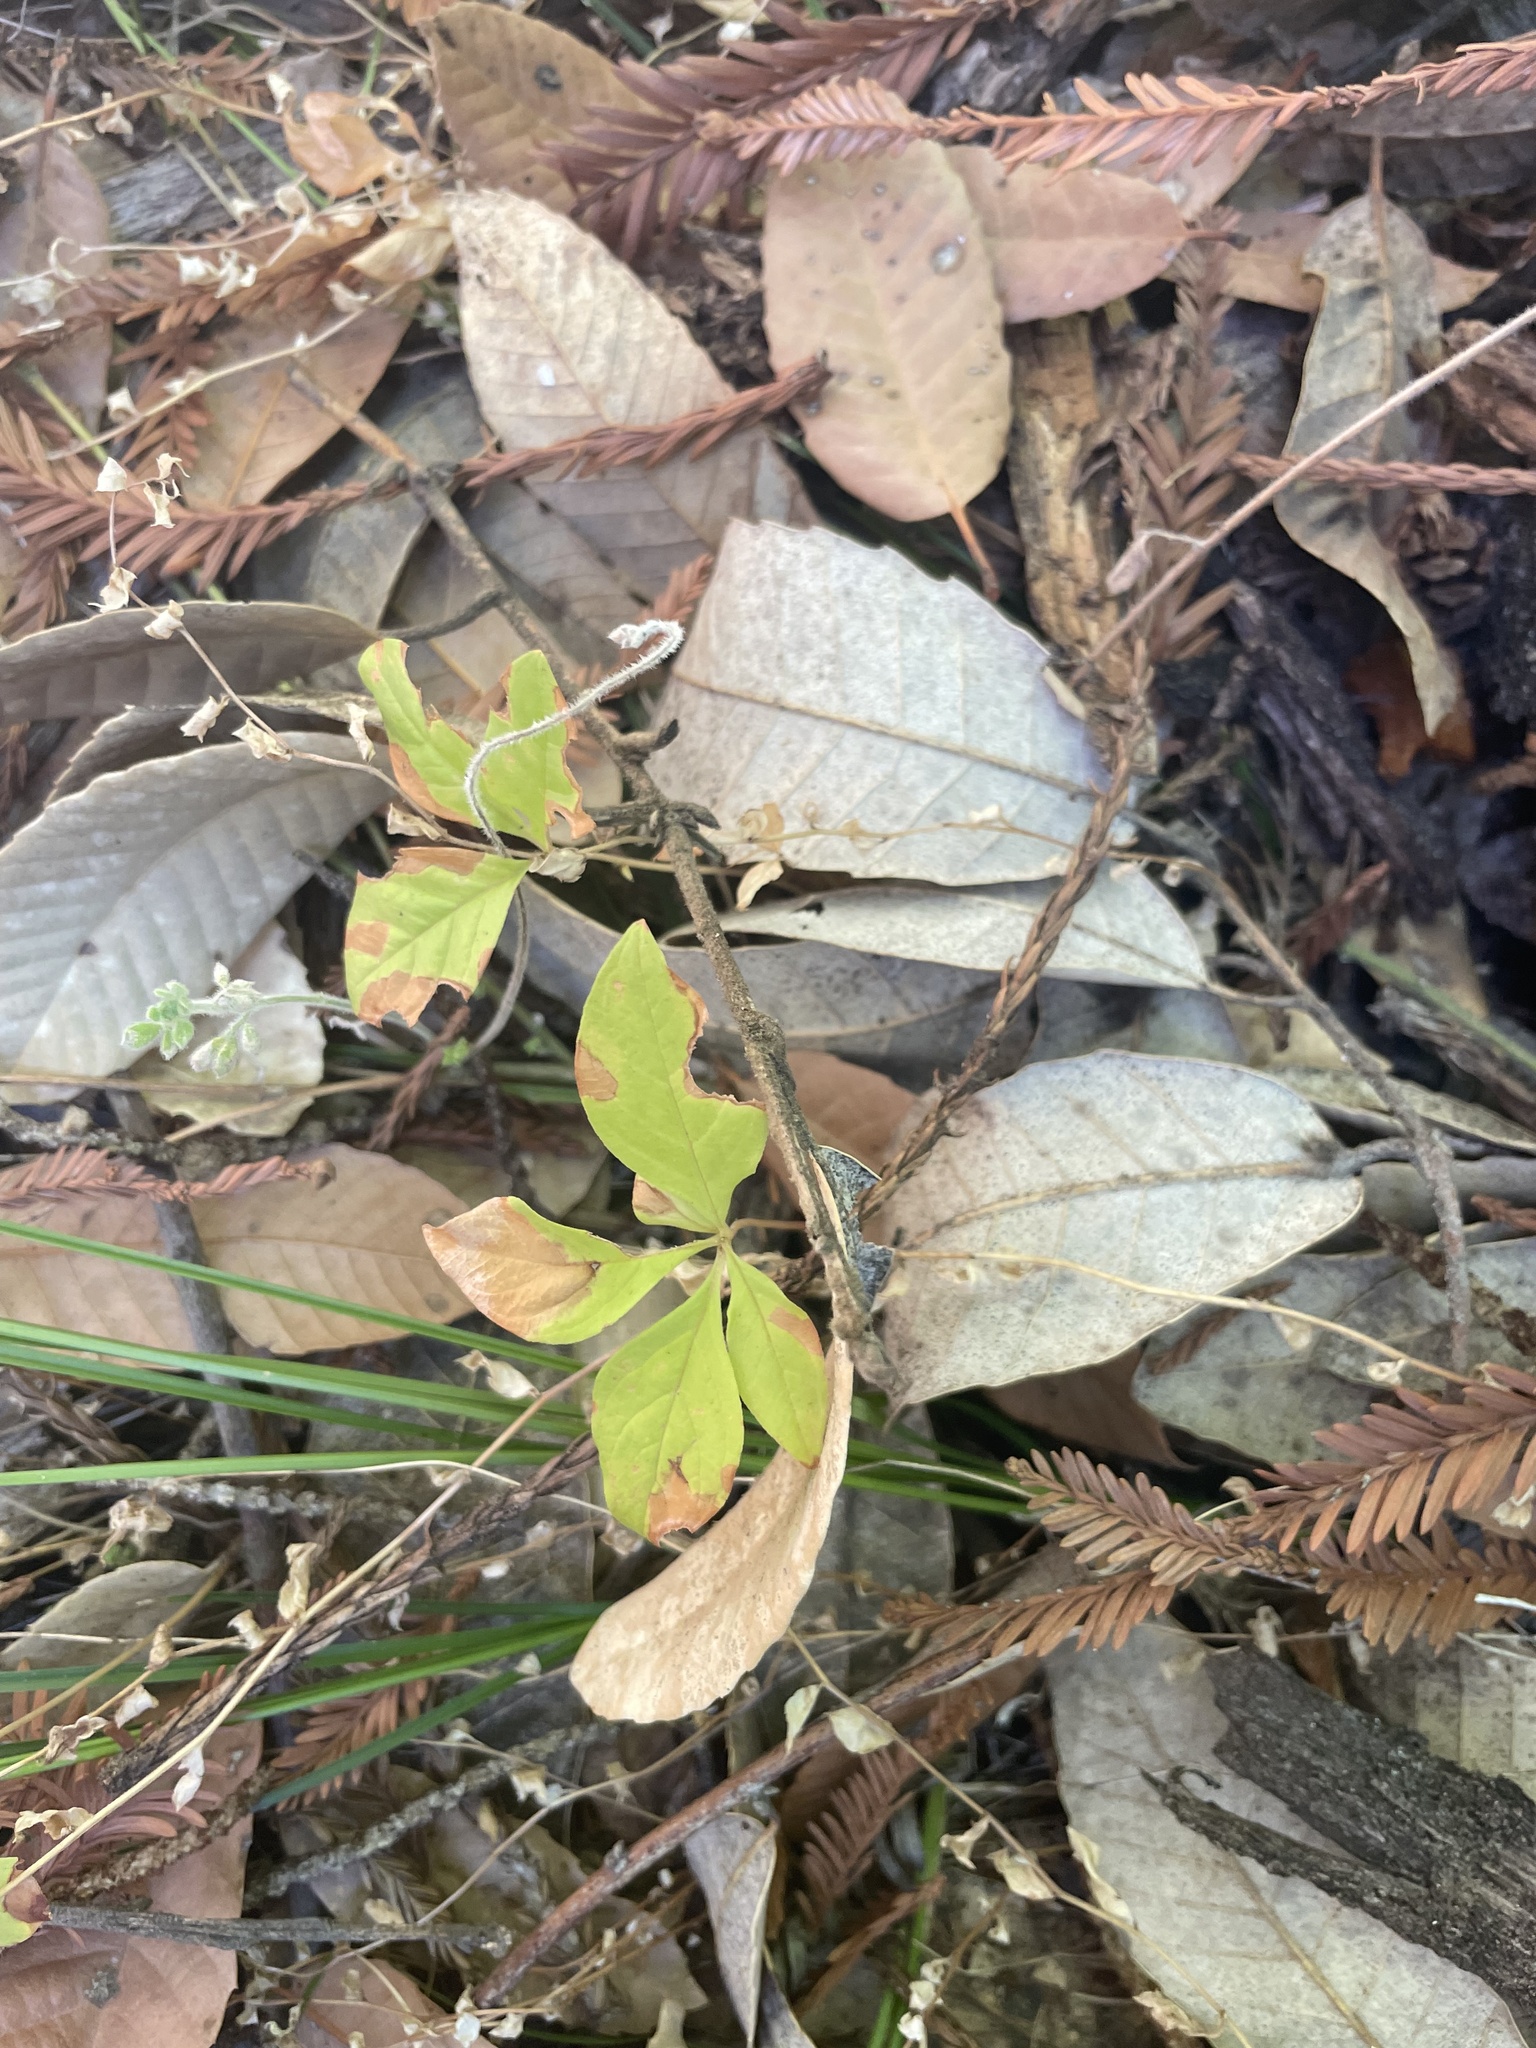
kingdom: Plantae
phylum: Tracheophyta
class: Magnoliopsida
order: Ericales
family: Primulaceae
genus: Lysimachia
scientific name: Lysimachia latifolia
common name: Pacific starflower
